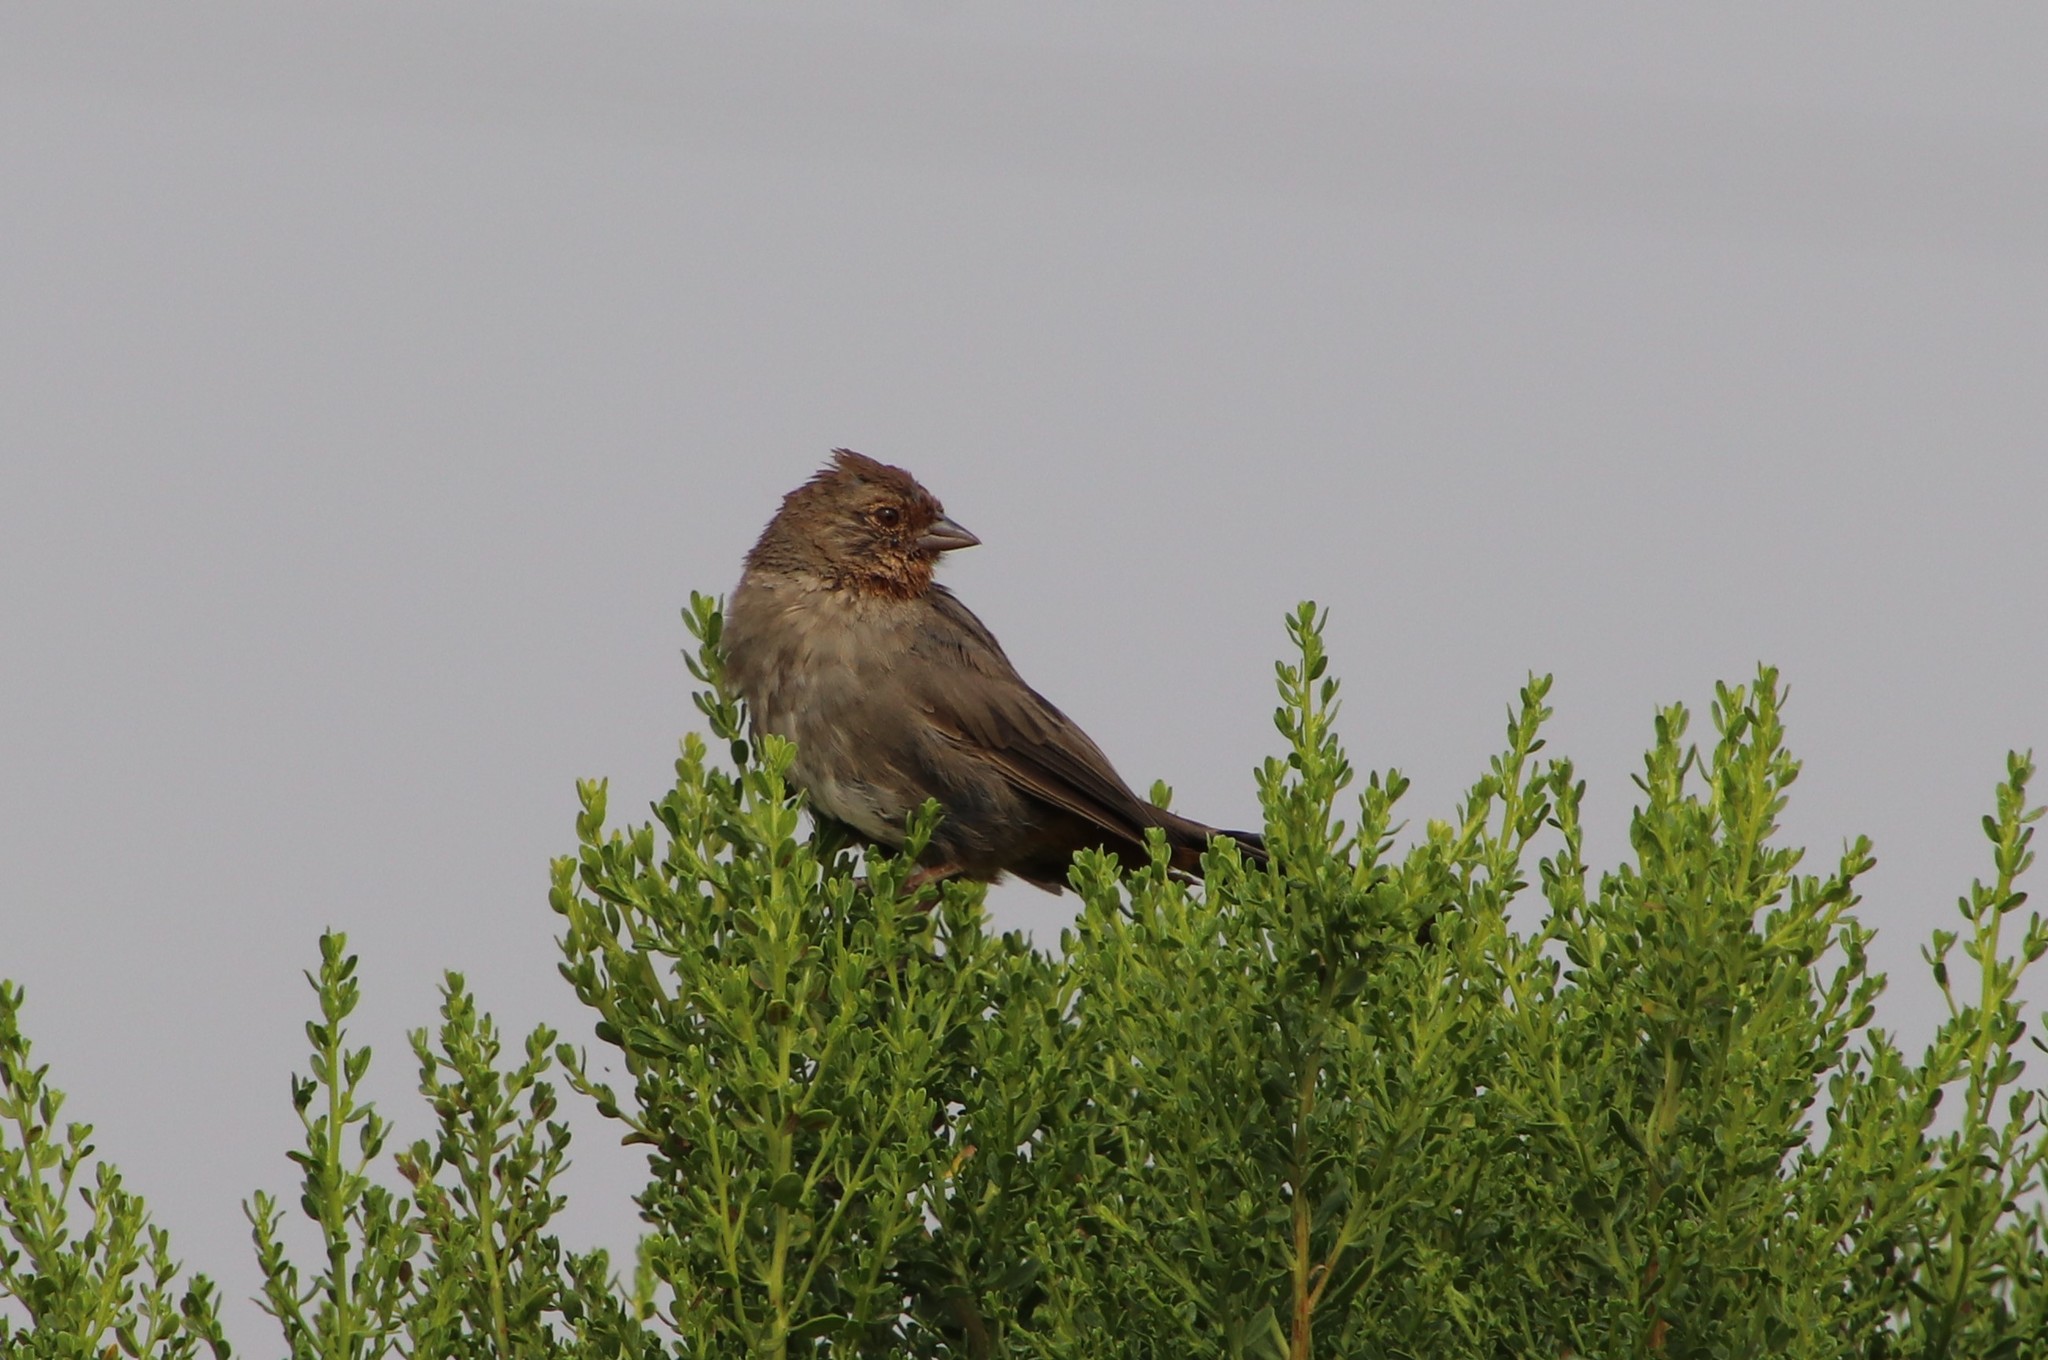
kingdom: Animalia
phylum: Chordata
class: Aves
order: Passeriformes
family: Passerellidae
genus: Melozone
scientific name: Melozone crissalis
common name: California towhee
